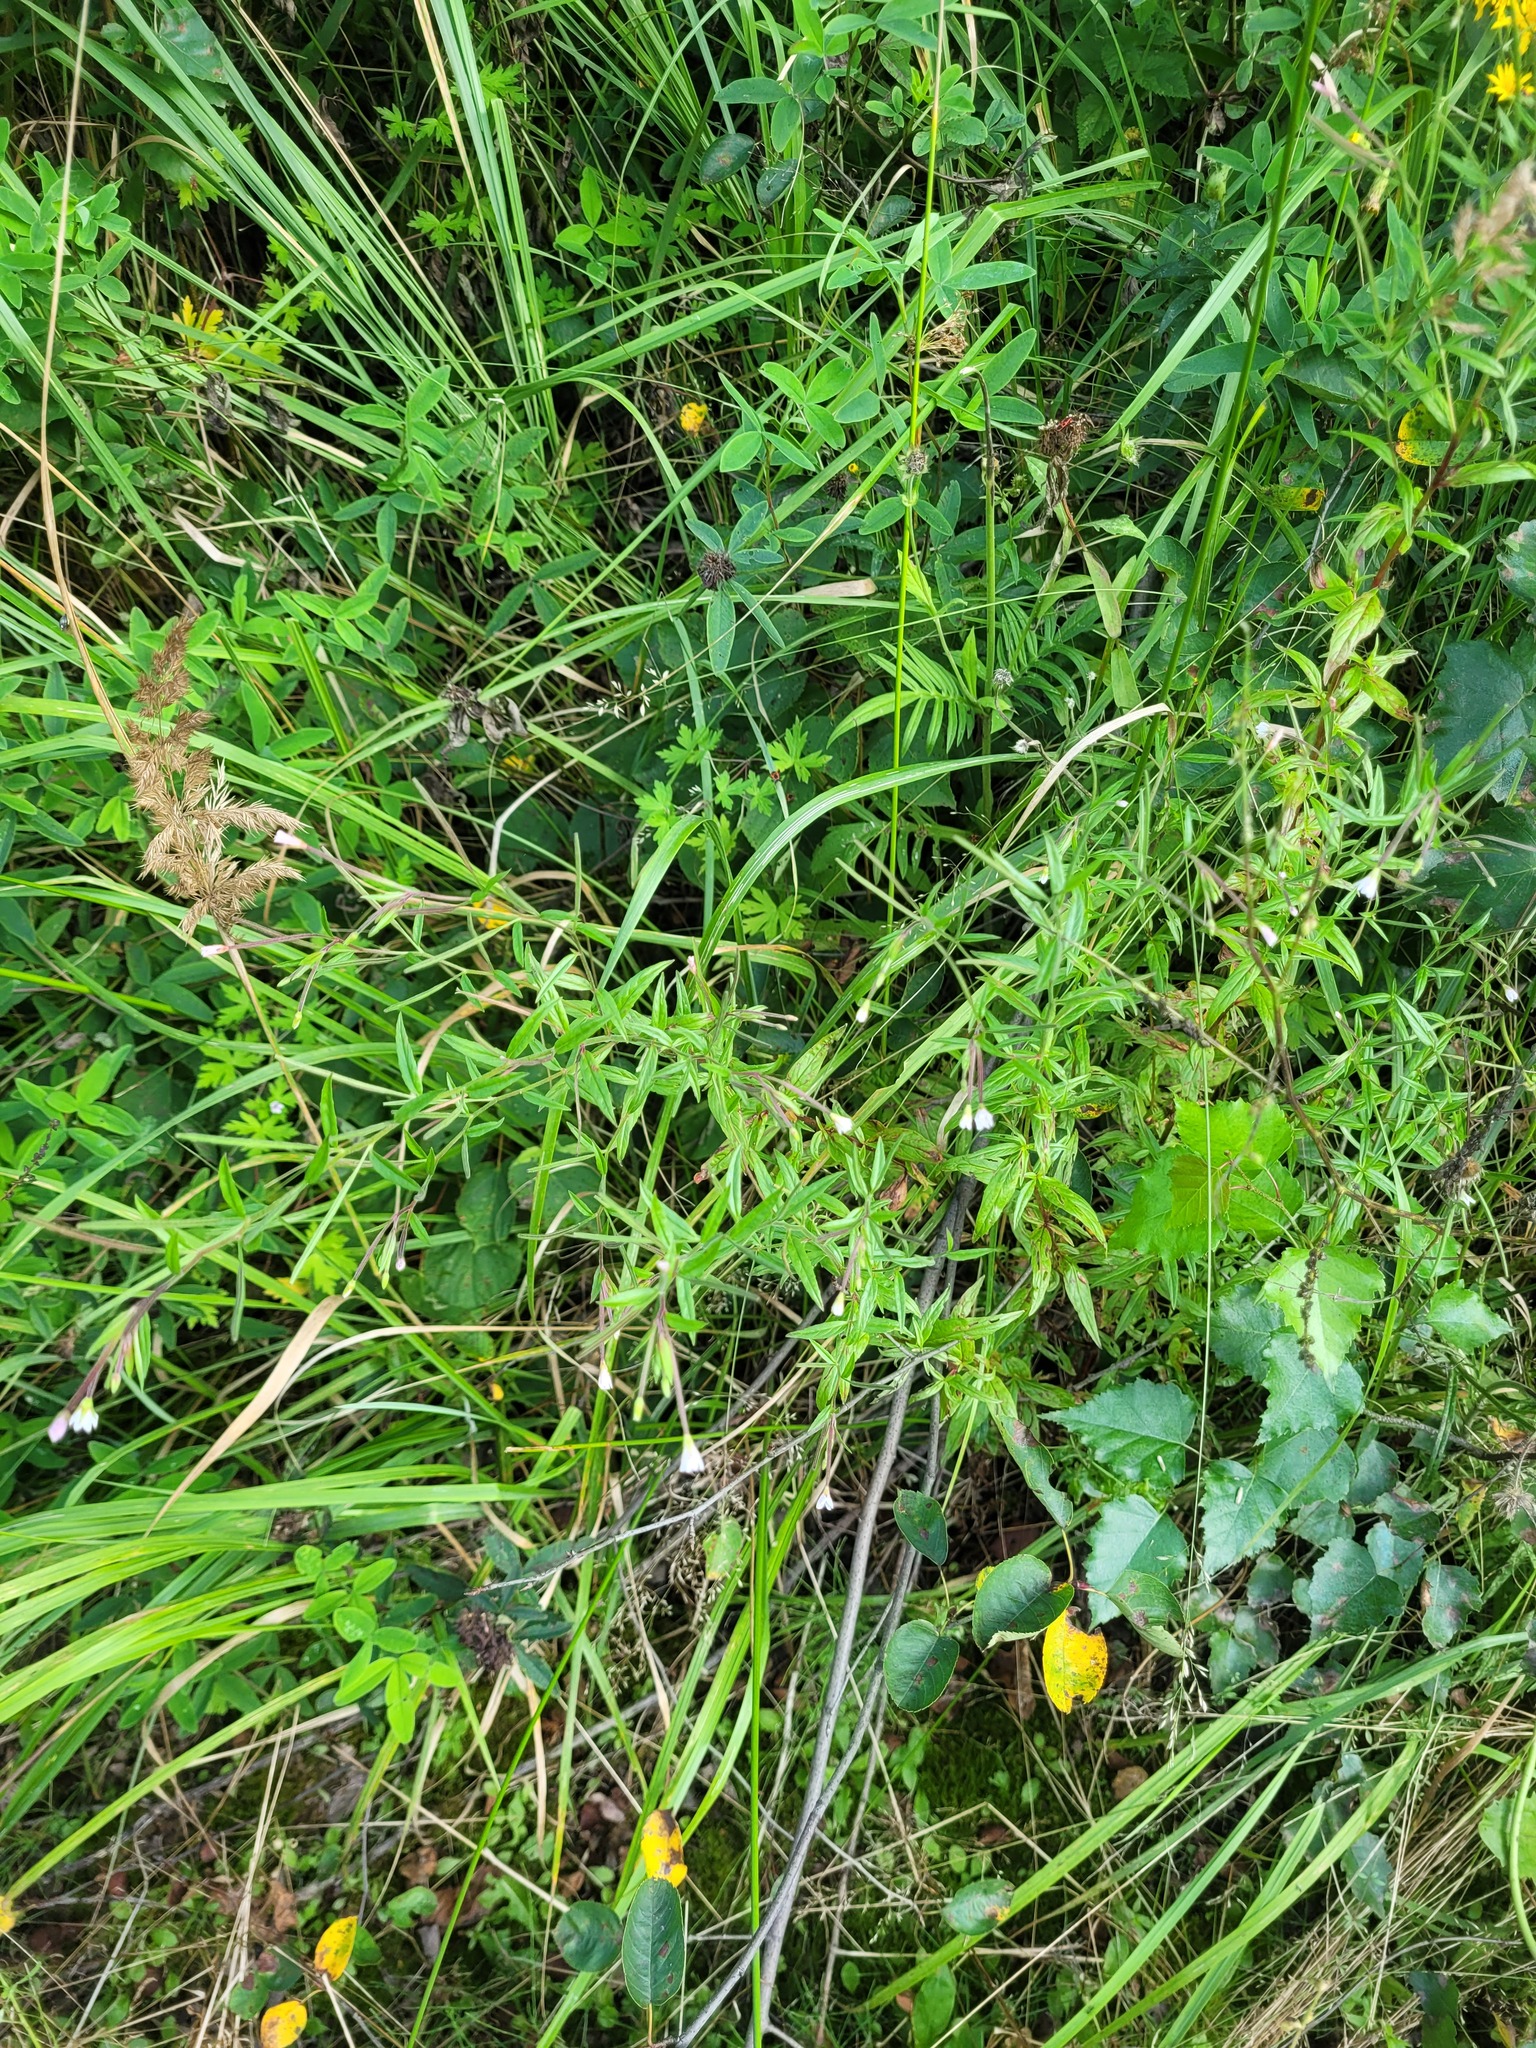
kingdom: Plantae
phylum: Tracheophyta
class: Magnoliopsida
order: Myrtales
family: Onagraceae
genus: Epilobium
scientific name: Epilobium palustre
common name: Marsh willowherb
